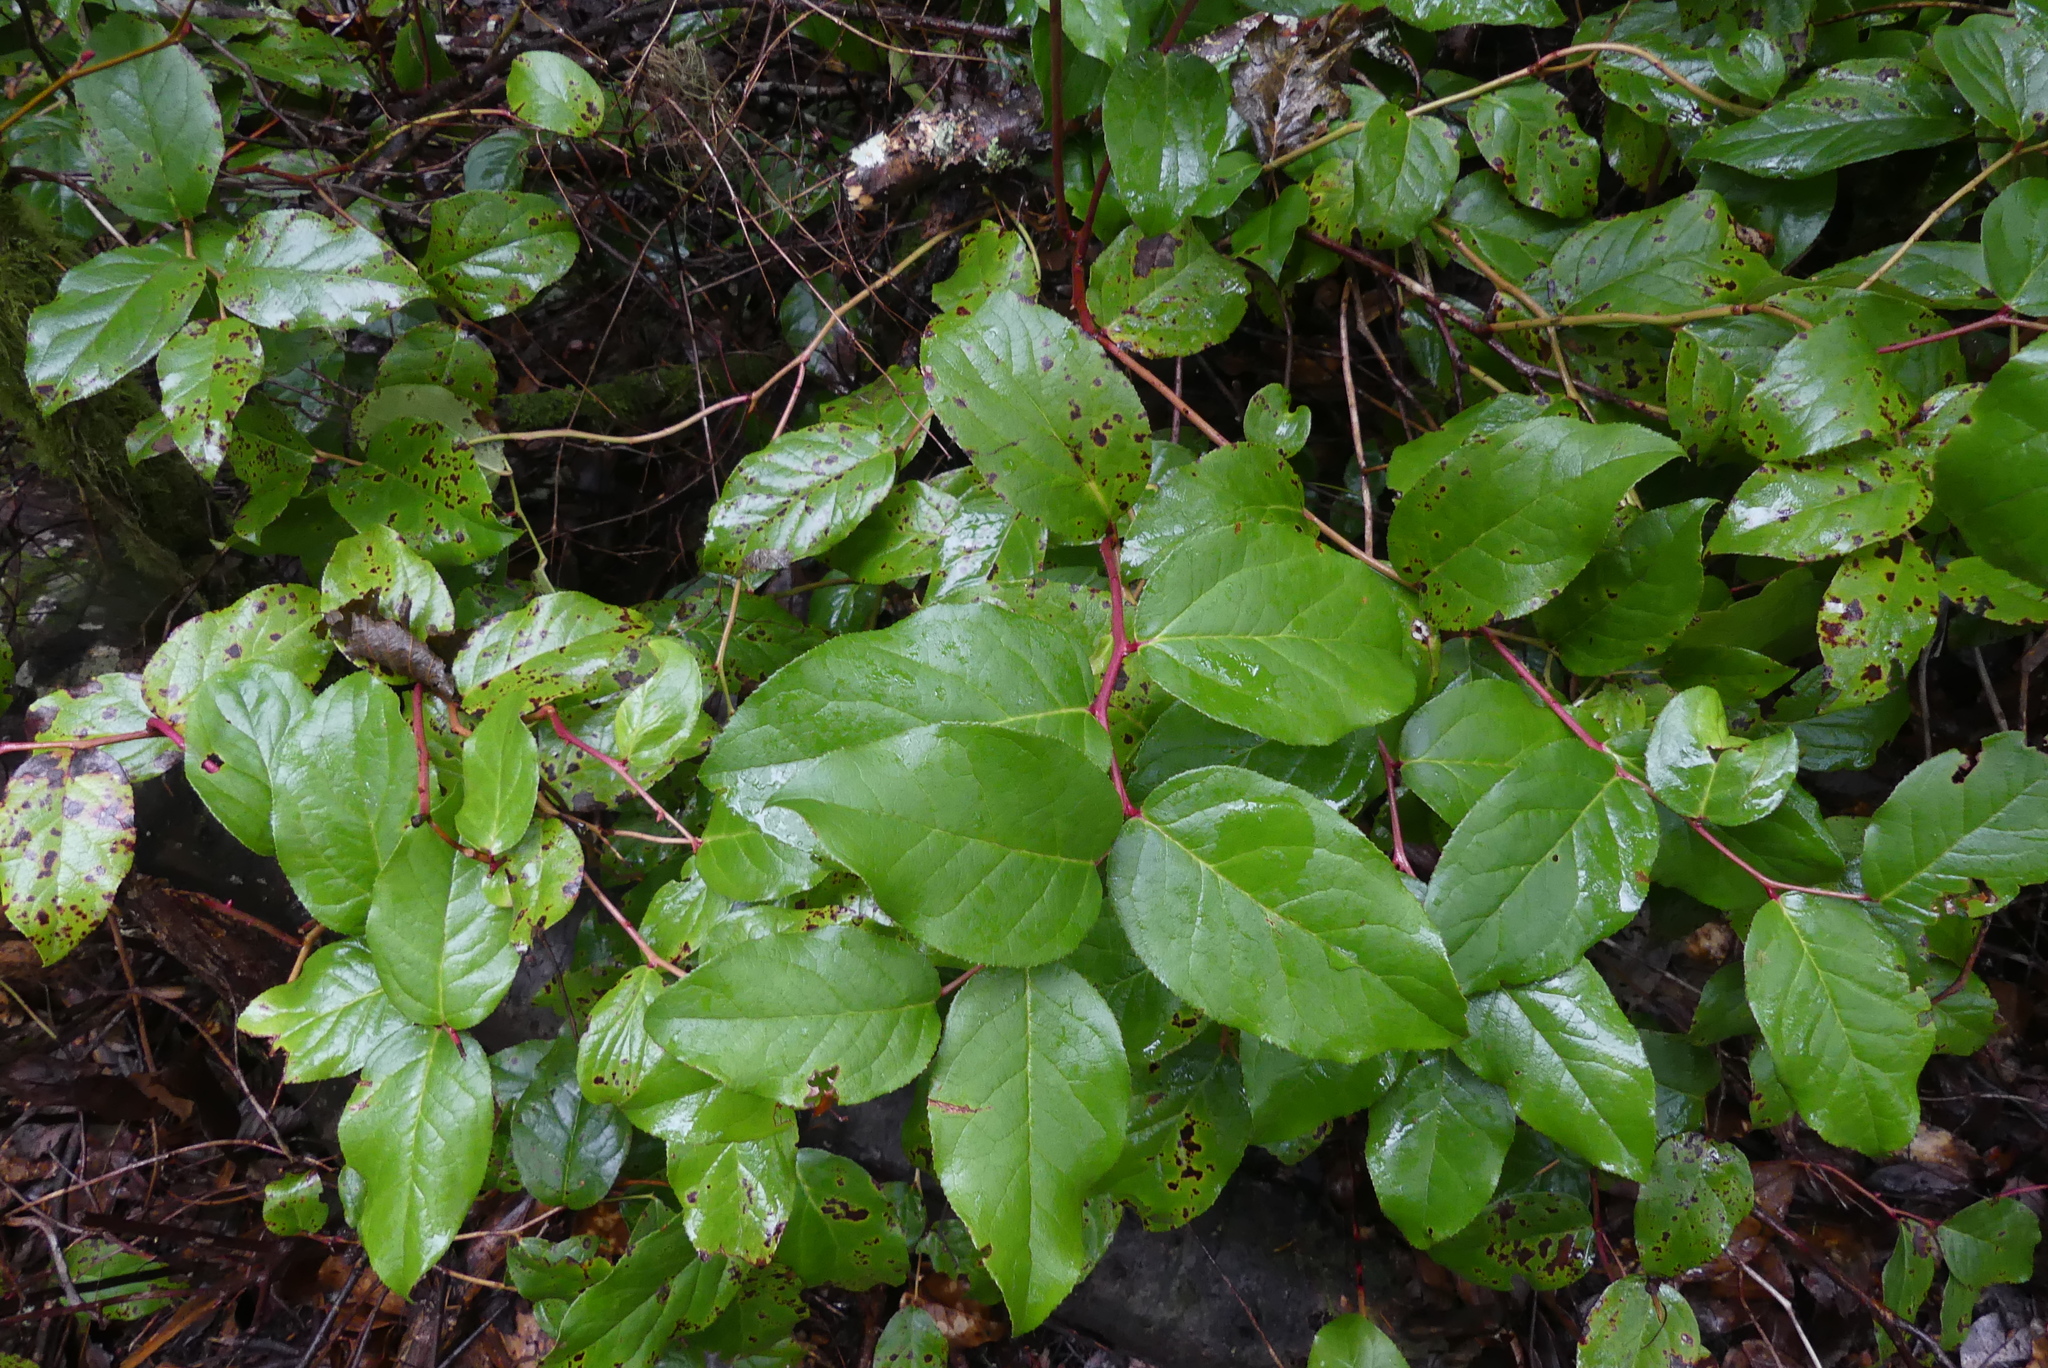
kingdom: Plantae
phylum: Tracheophyta
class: Magnoliopsida
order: Ericales
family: Ericaceae
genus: Gaultheria
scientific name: Gaultheria shallon
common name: Shallon
